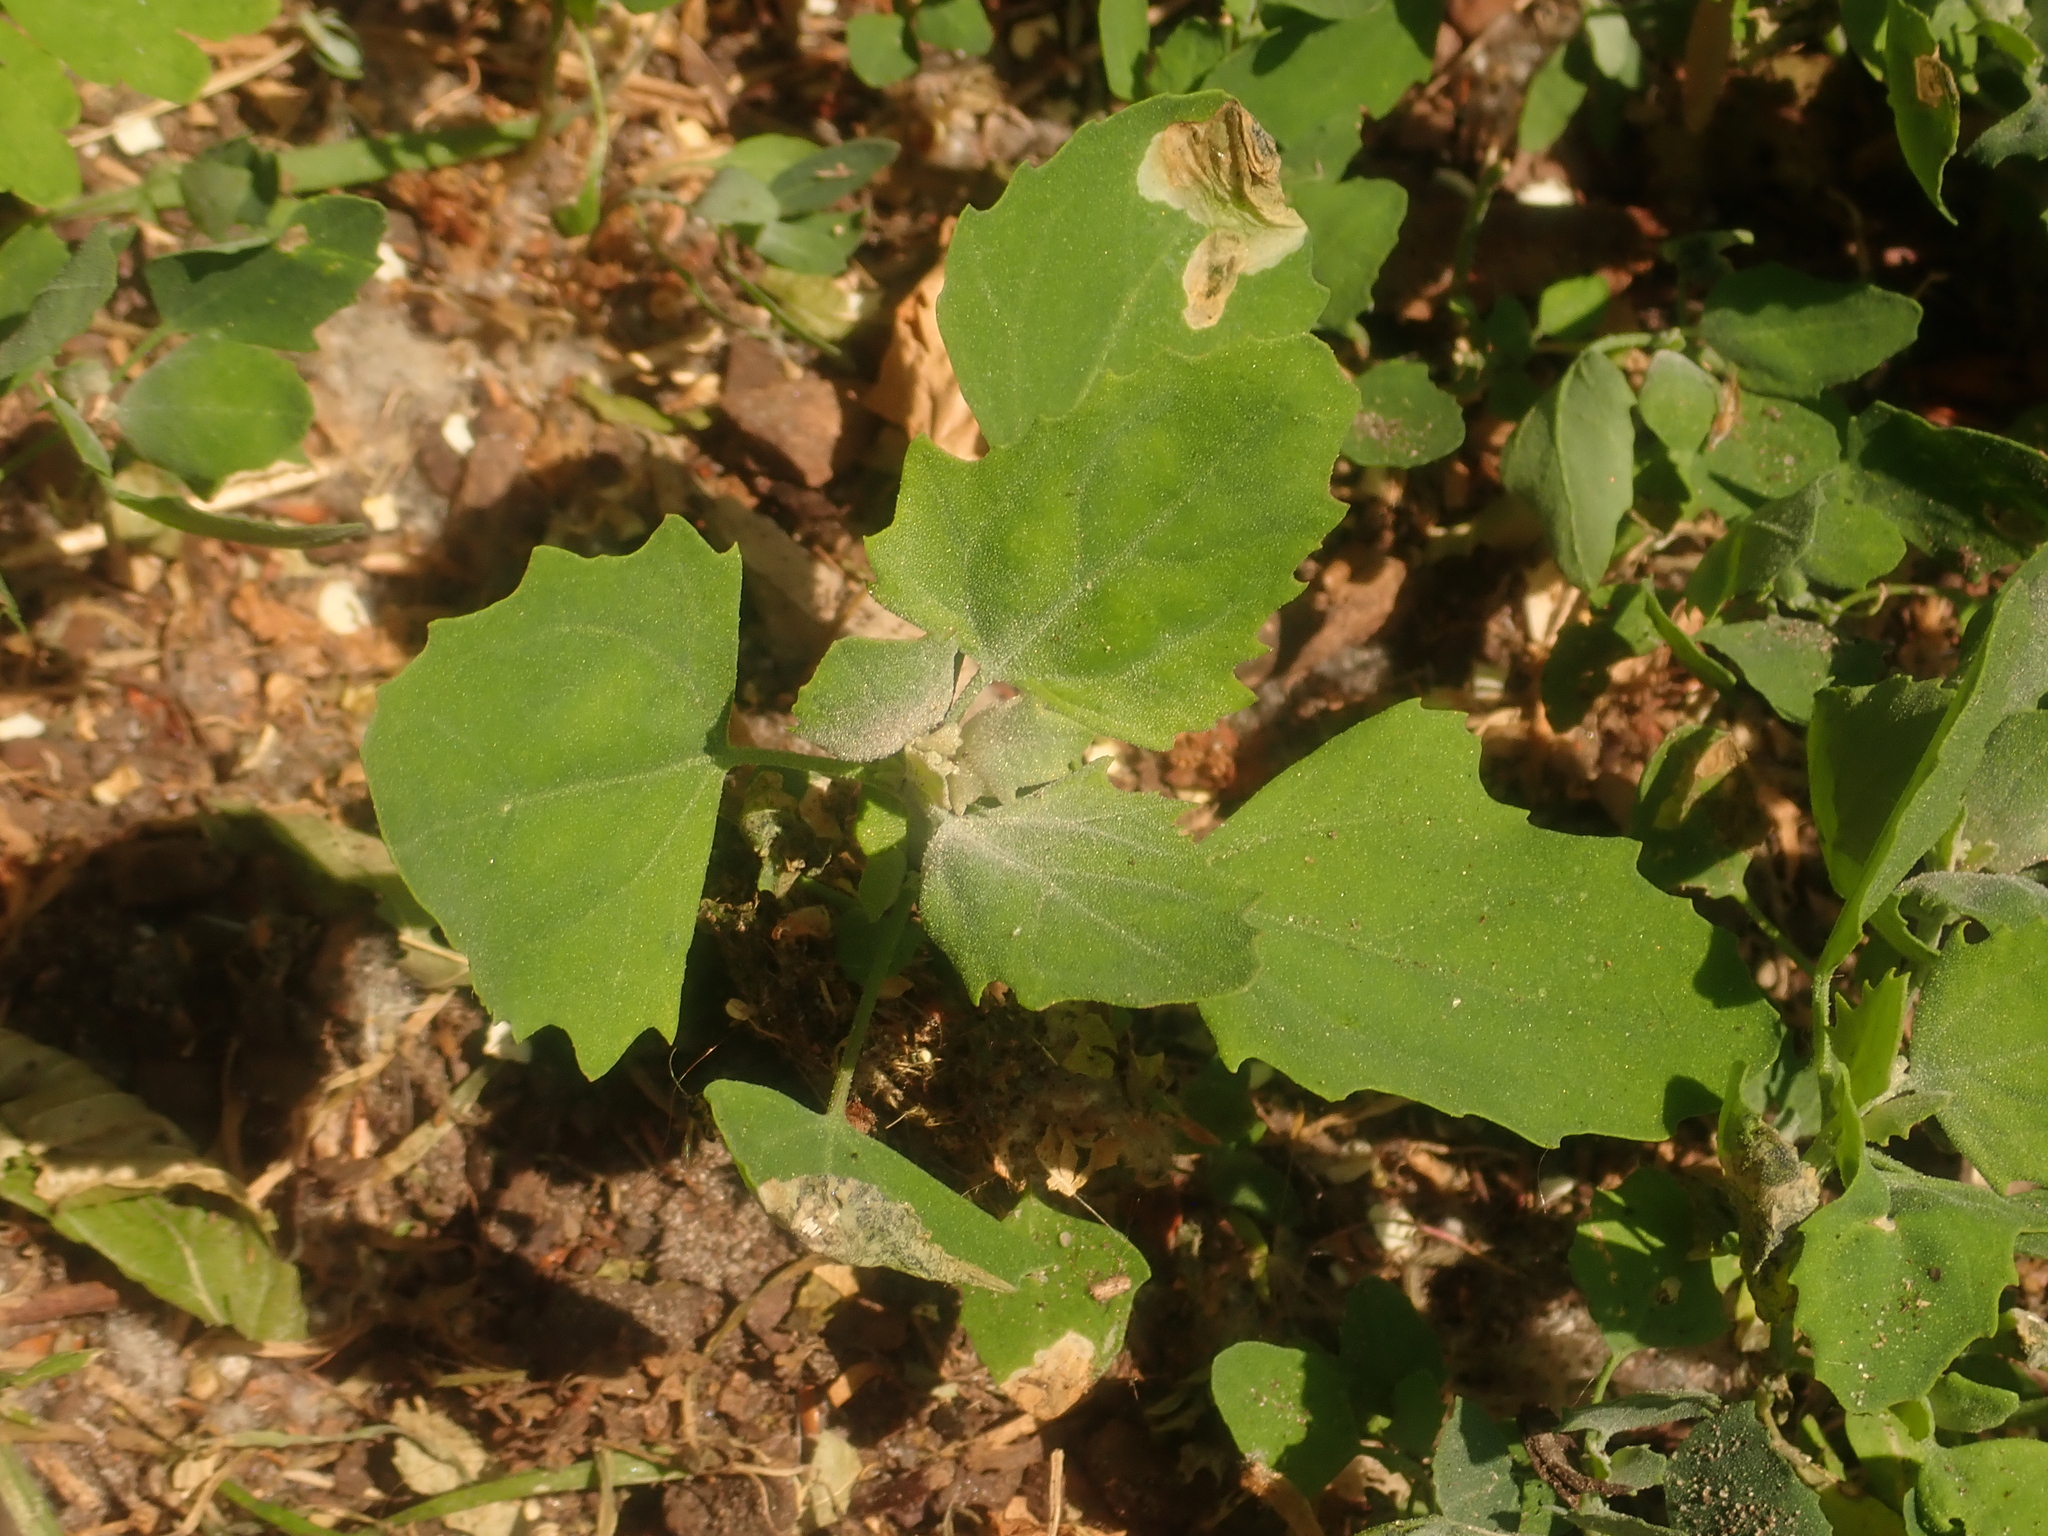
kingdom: Plantae
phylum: Tracheophyta
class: Magnoliopsida
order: Caryophyllales
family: Amaranthaceae
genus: Chenopodium
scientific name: Chenopodium album
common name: Fat-hen
